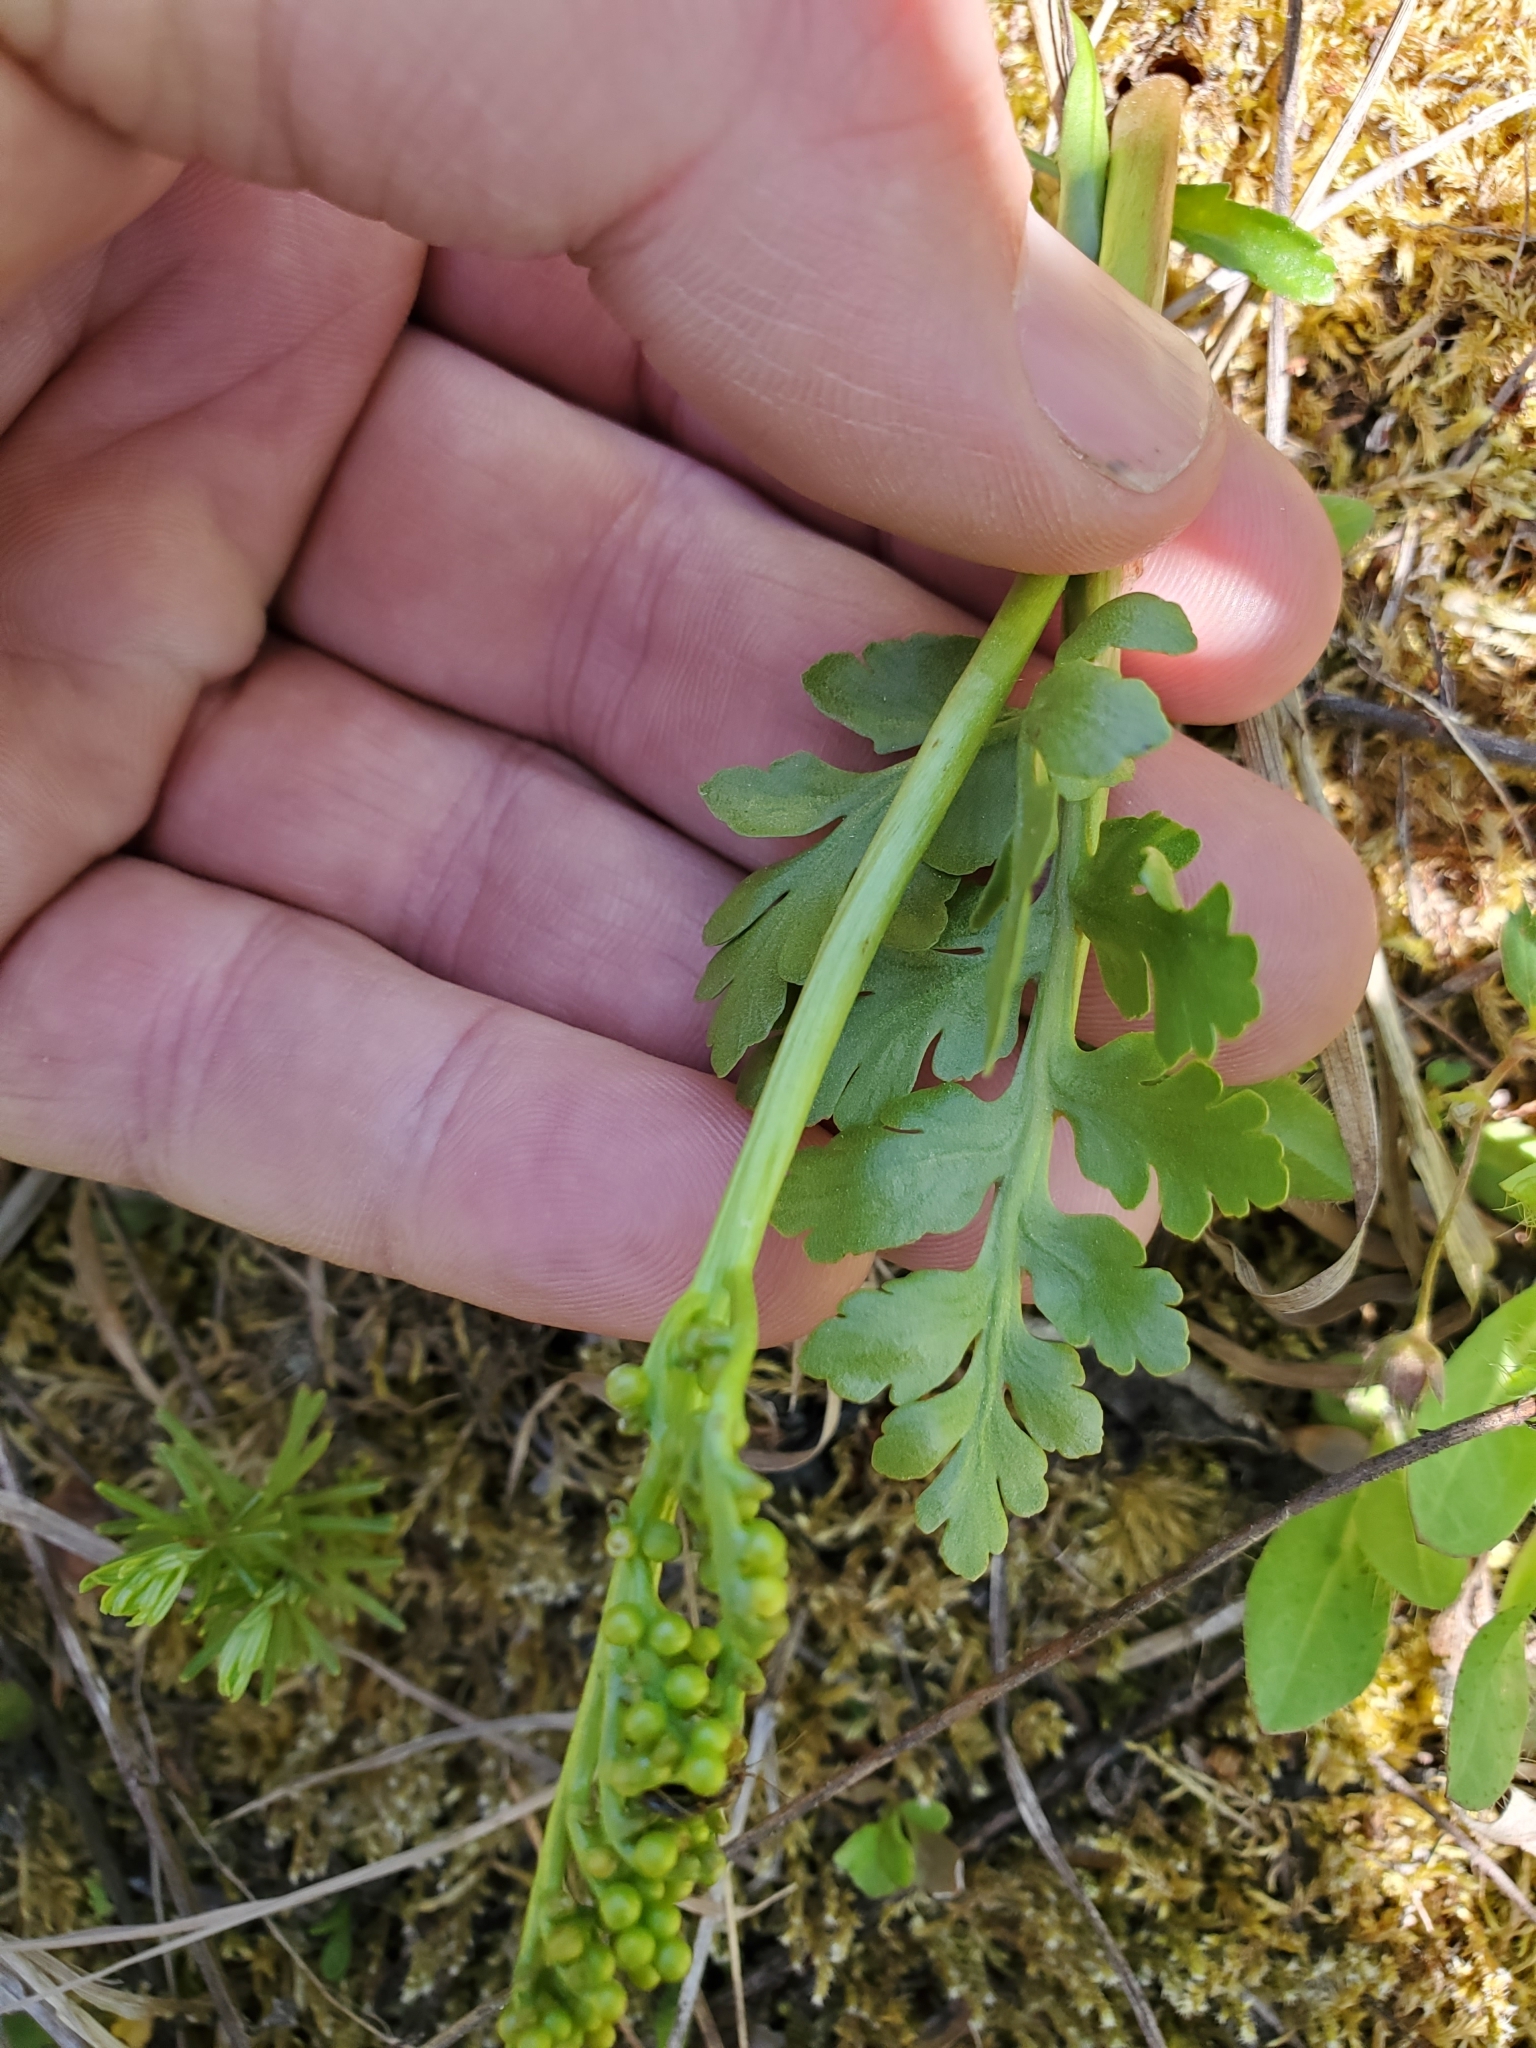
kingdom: Plantae
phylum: Tracheophyta
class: Polypodiopsida
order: Ophioglossales
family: Ophioglossaceae
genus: Botrychium
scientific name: Botrychium pinnatum
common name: Northwestern moonwort
